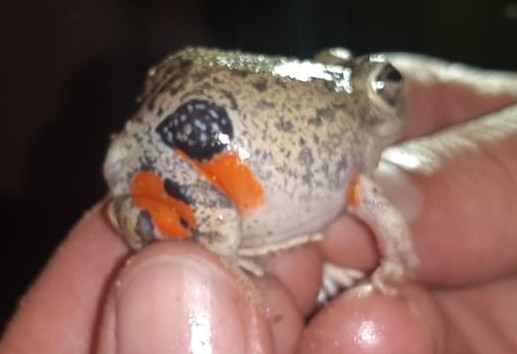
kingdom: Animalia
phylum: Chordata
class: Amphibia
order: Anura
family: Leptodactylidae
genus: Pleurodema
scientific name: Pleurodema brachyops
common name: Colombian four-eyed frog
